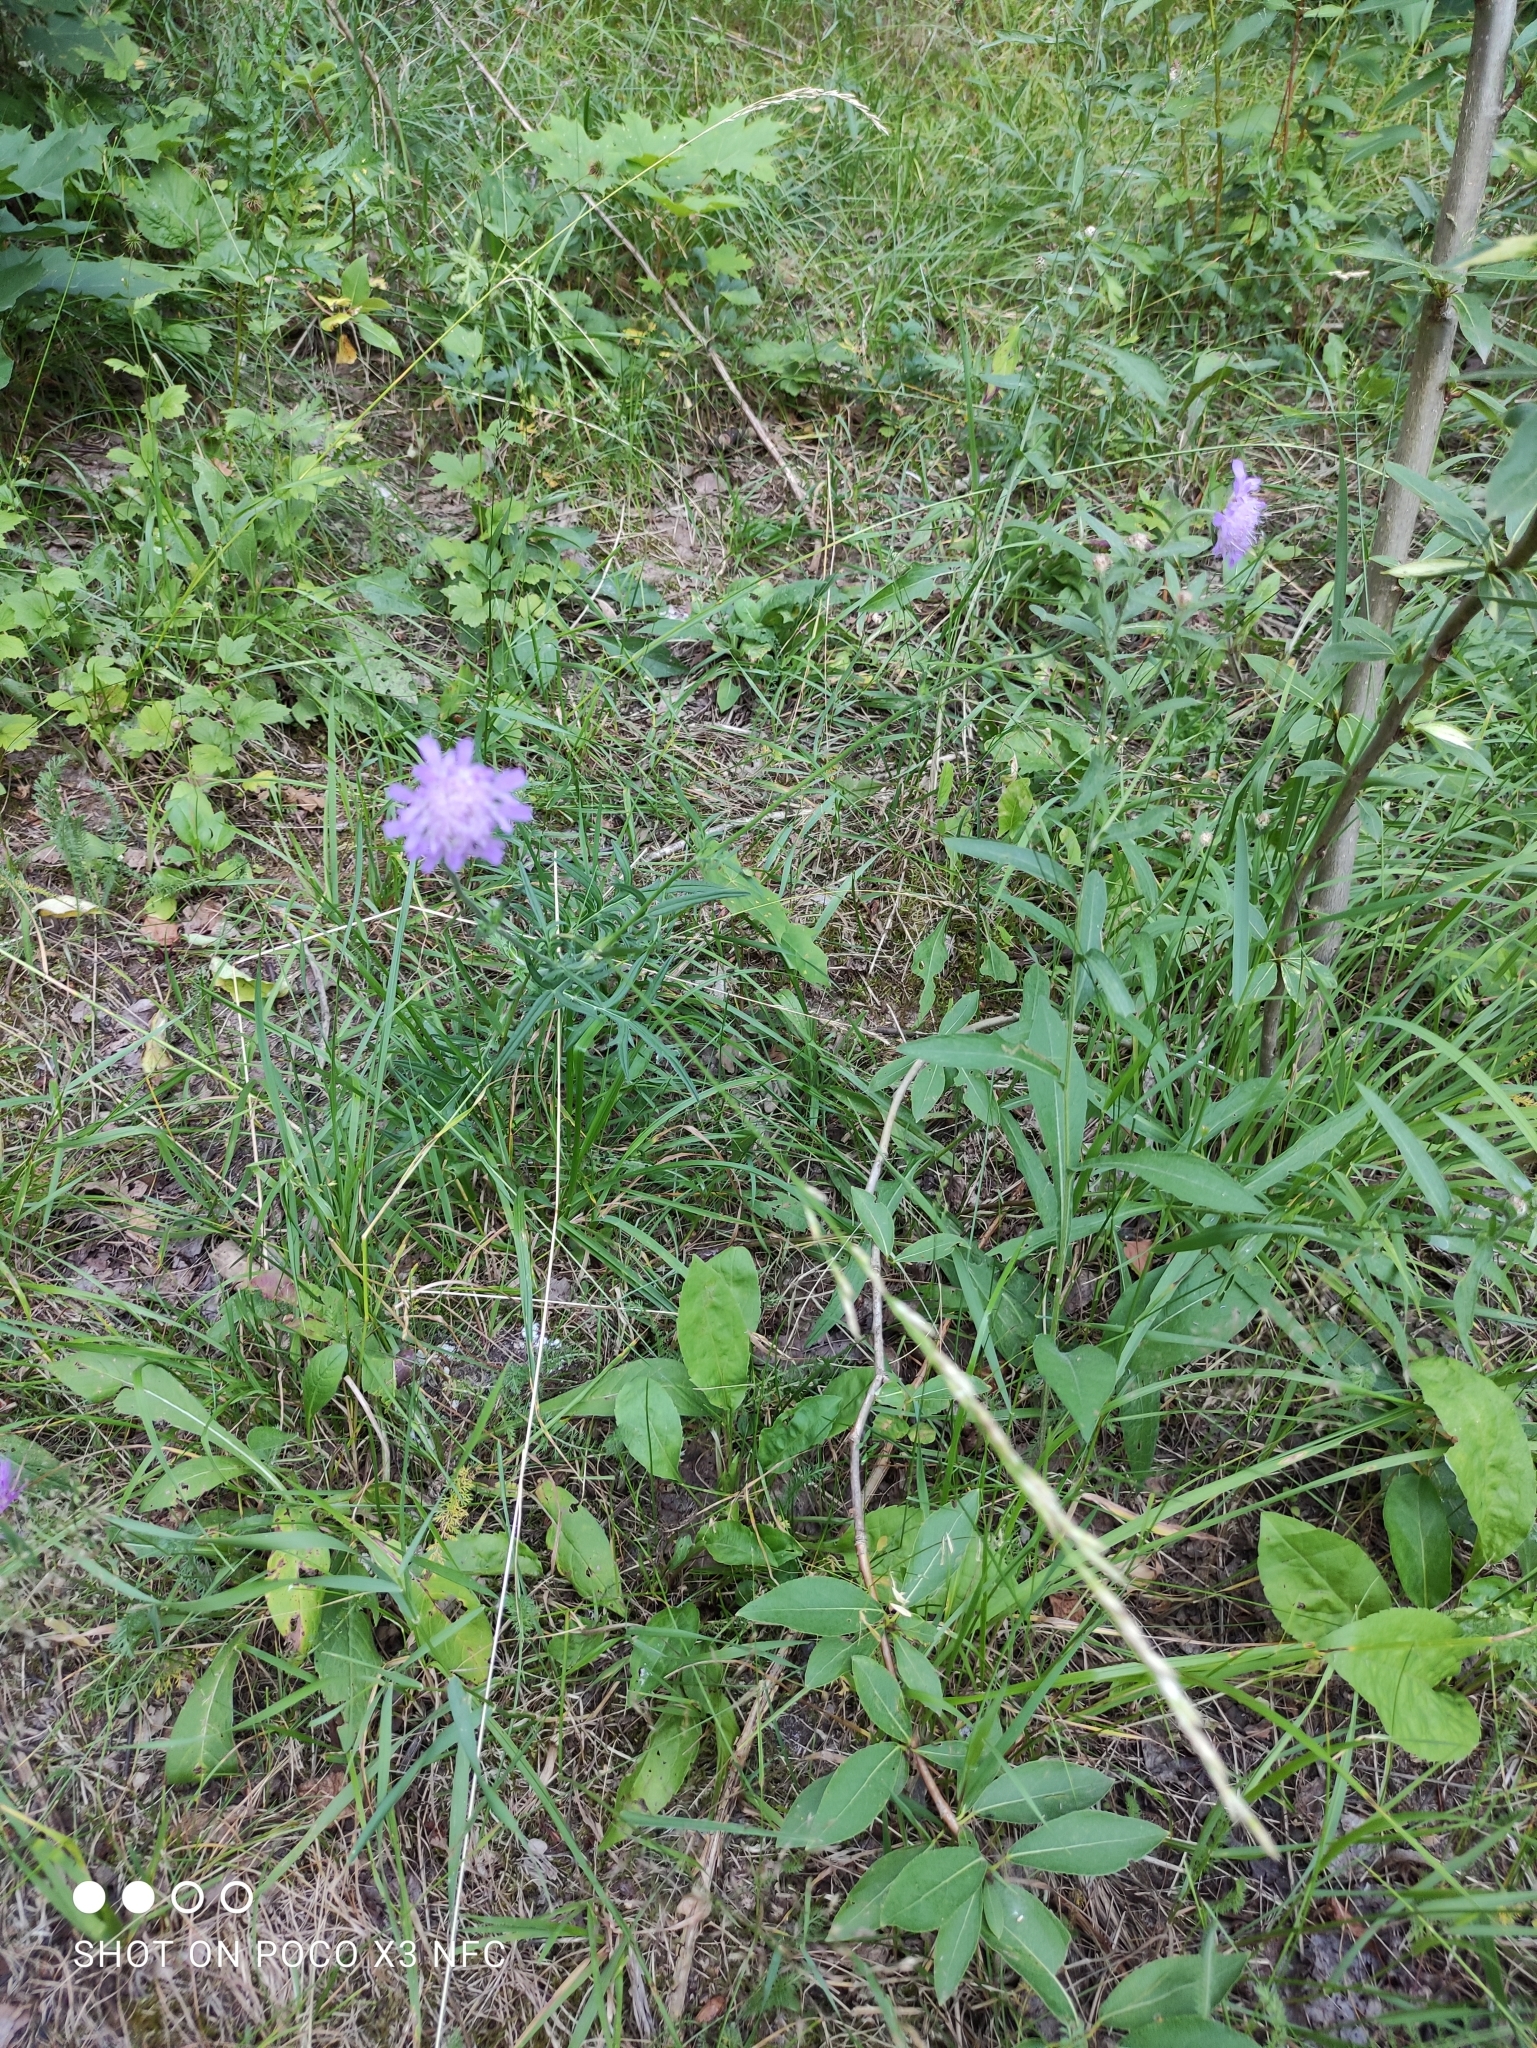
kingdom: Plantae
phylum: Tracheophyta
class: Magnoliopsida
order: Dipsacales
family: Caprifoliaceae
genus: Knautia
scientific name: Knautia arvensis
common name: Field scabiosa
